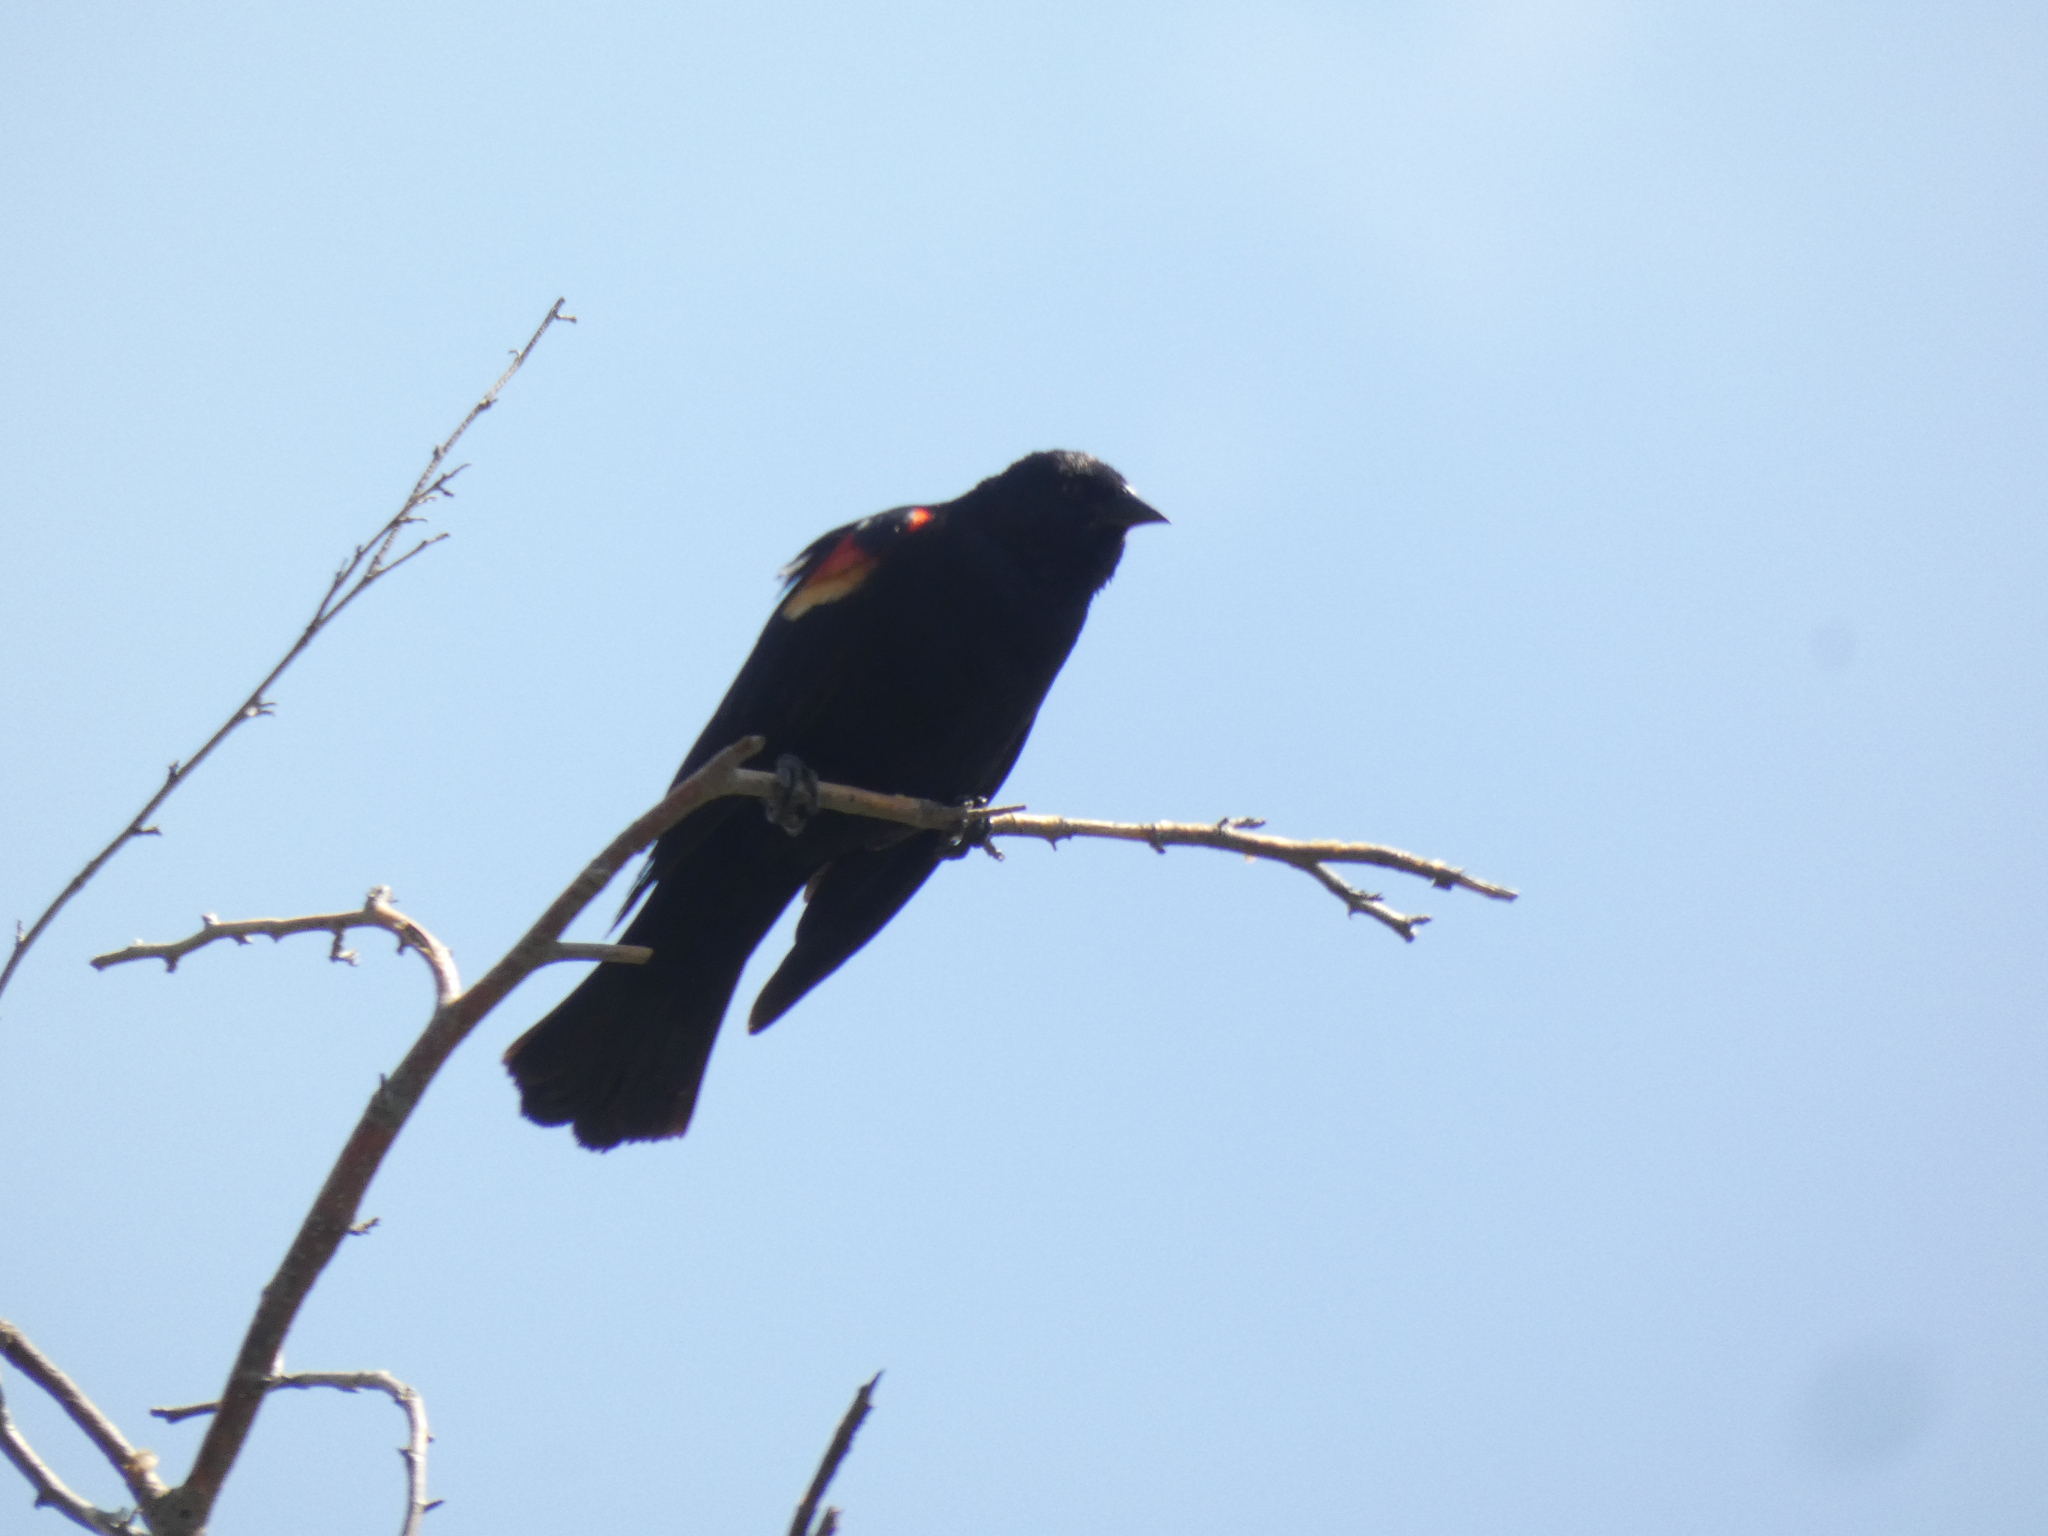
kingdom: Animalia
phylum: Chordata
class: Aves
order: Passeriformes
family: Icteridae
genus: Agelaius
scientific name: Agelaius phoeniceus
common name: Red-winged blackbird
